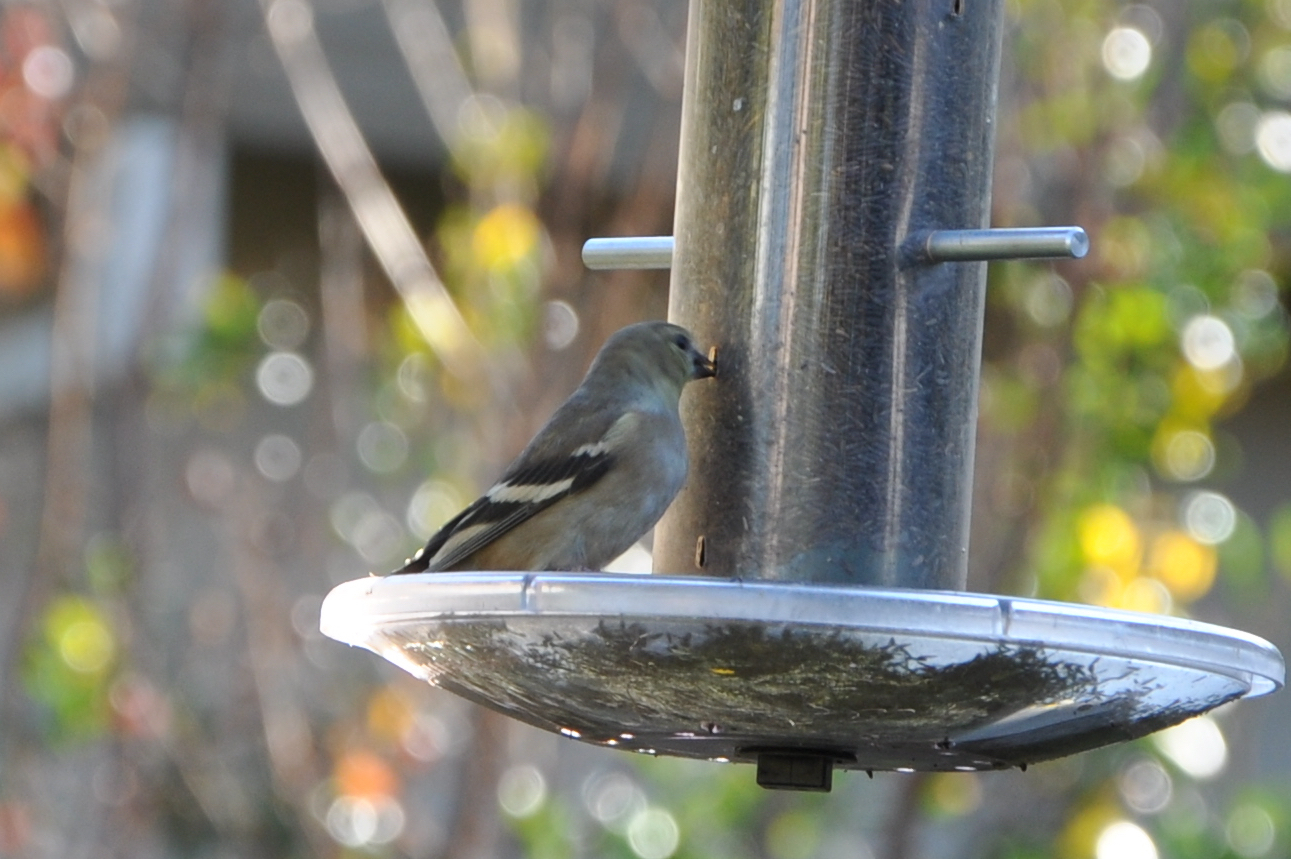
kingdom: Animalia
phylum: Chordata
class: Aves
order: Passeriformes
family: Fringillidae
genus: Spinus
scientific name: Spinus tristis
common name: American goldfinch
